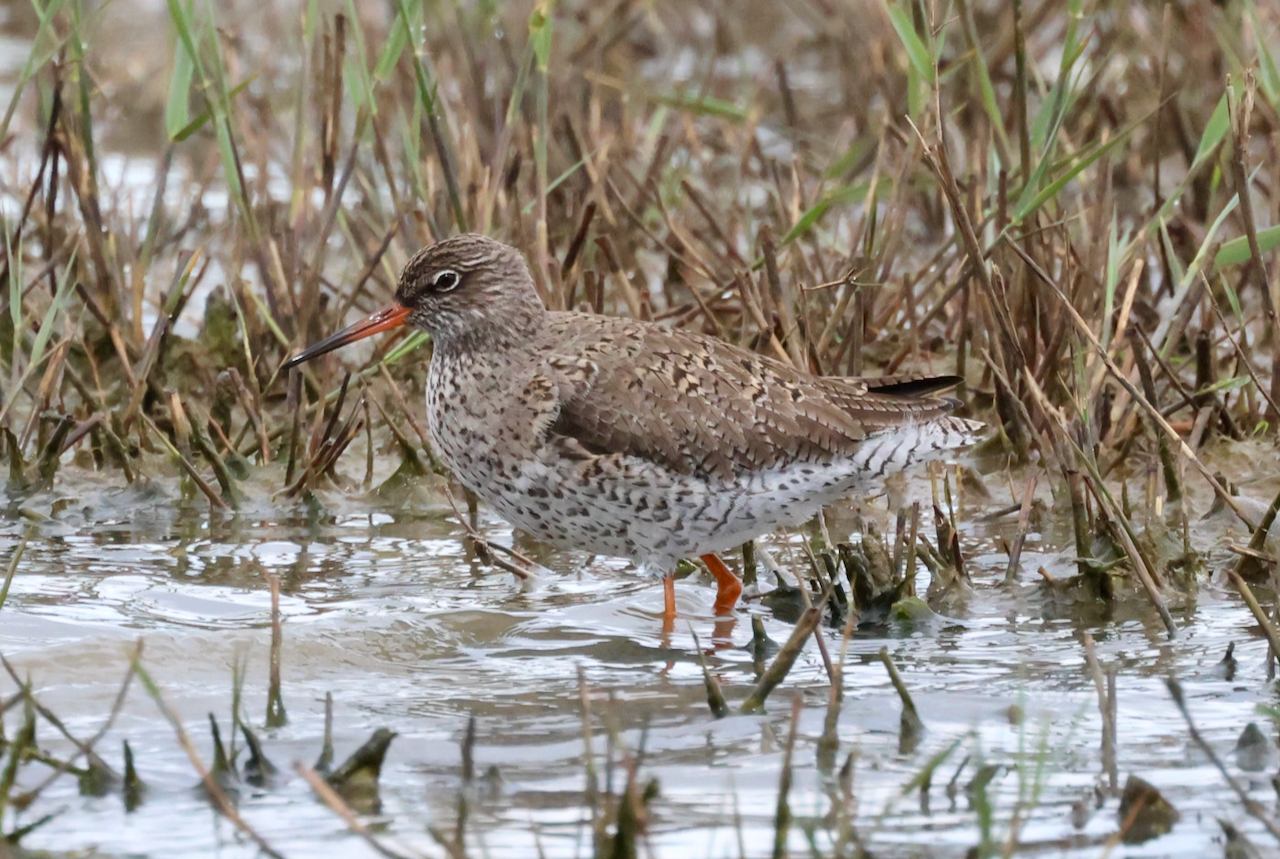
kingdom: Animalia
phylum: Chordata
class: Aves
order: Charadriiformes
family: Scolopacidae
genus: Tringa
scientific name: Tringa totanus
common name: Common redshank
